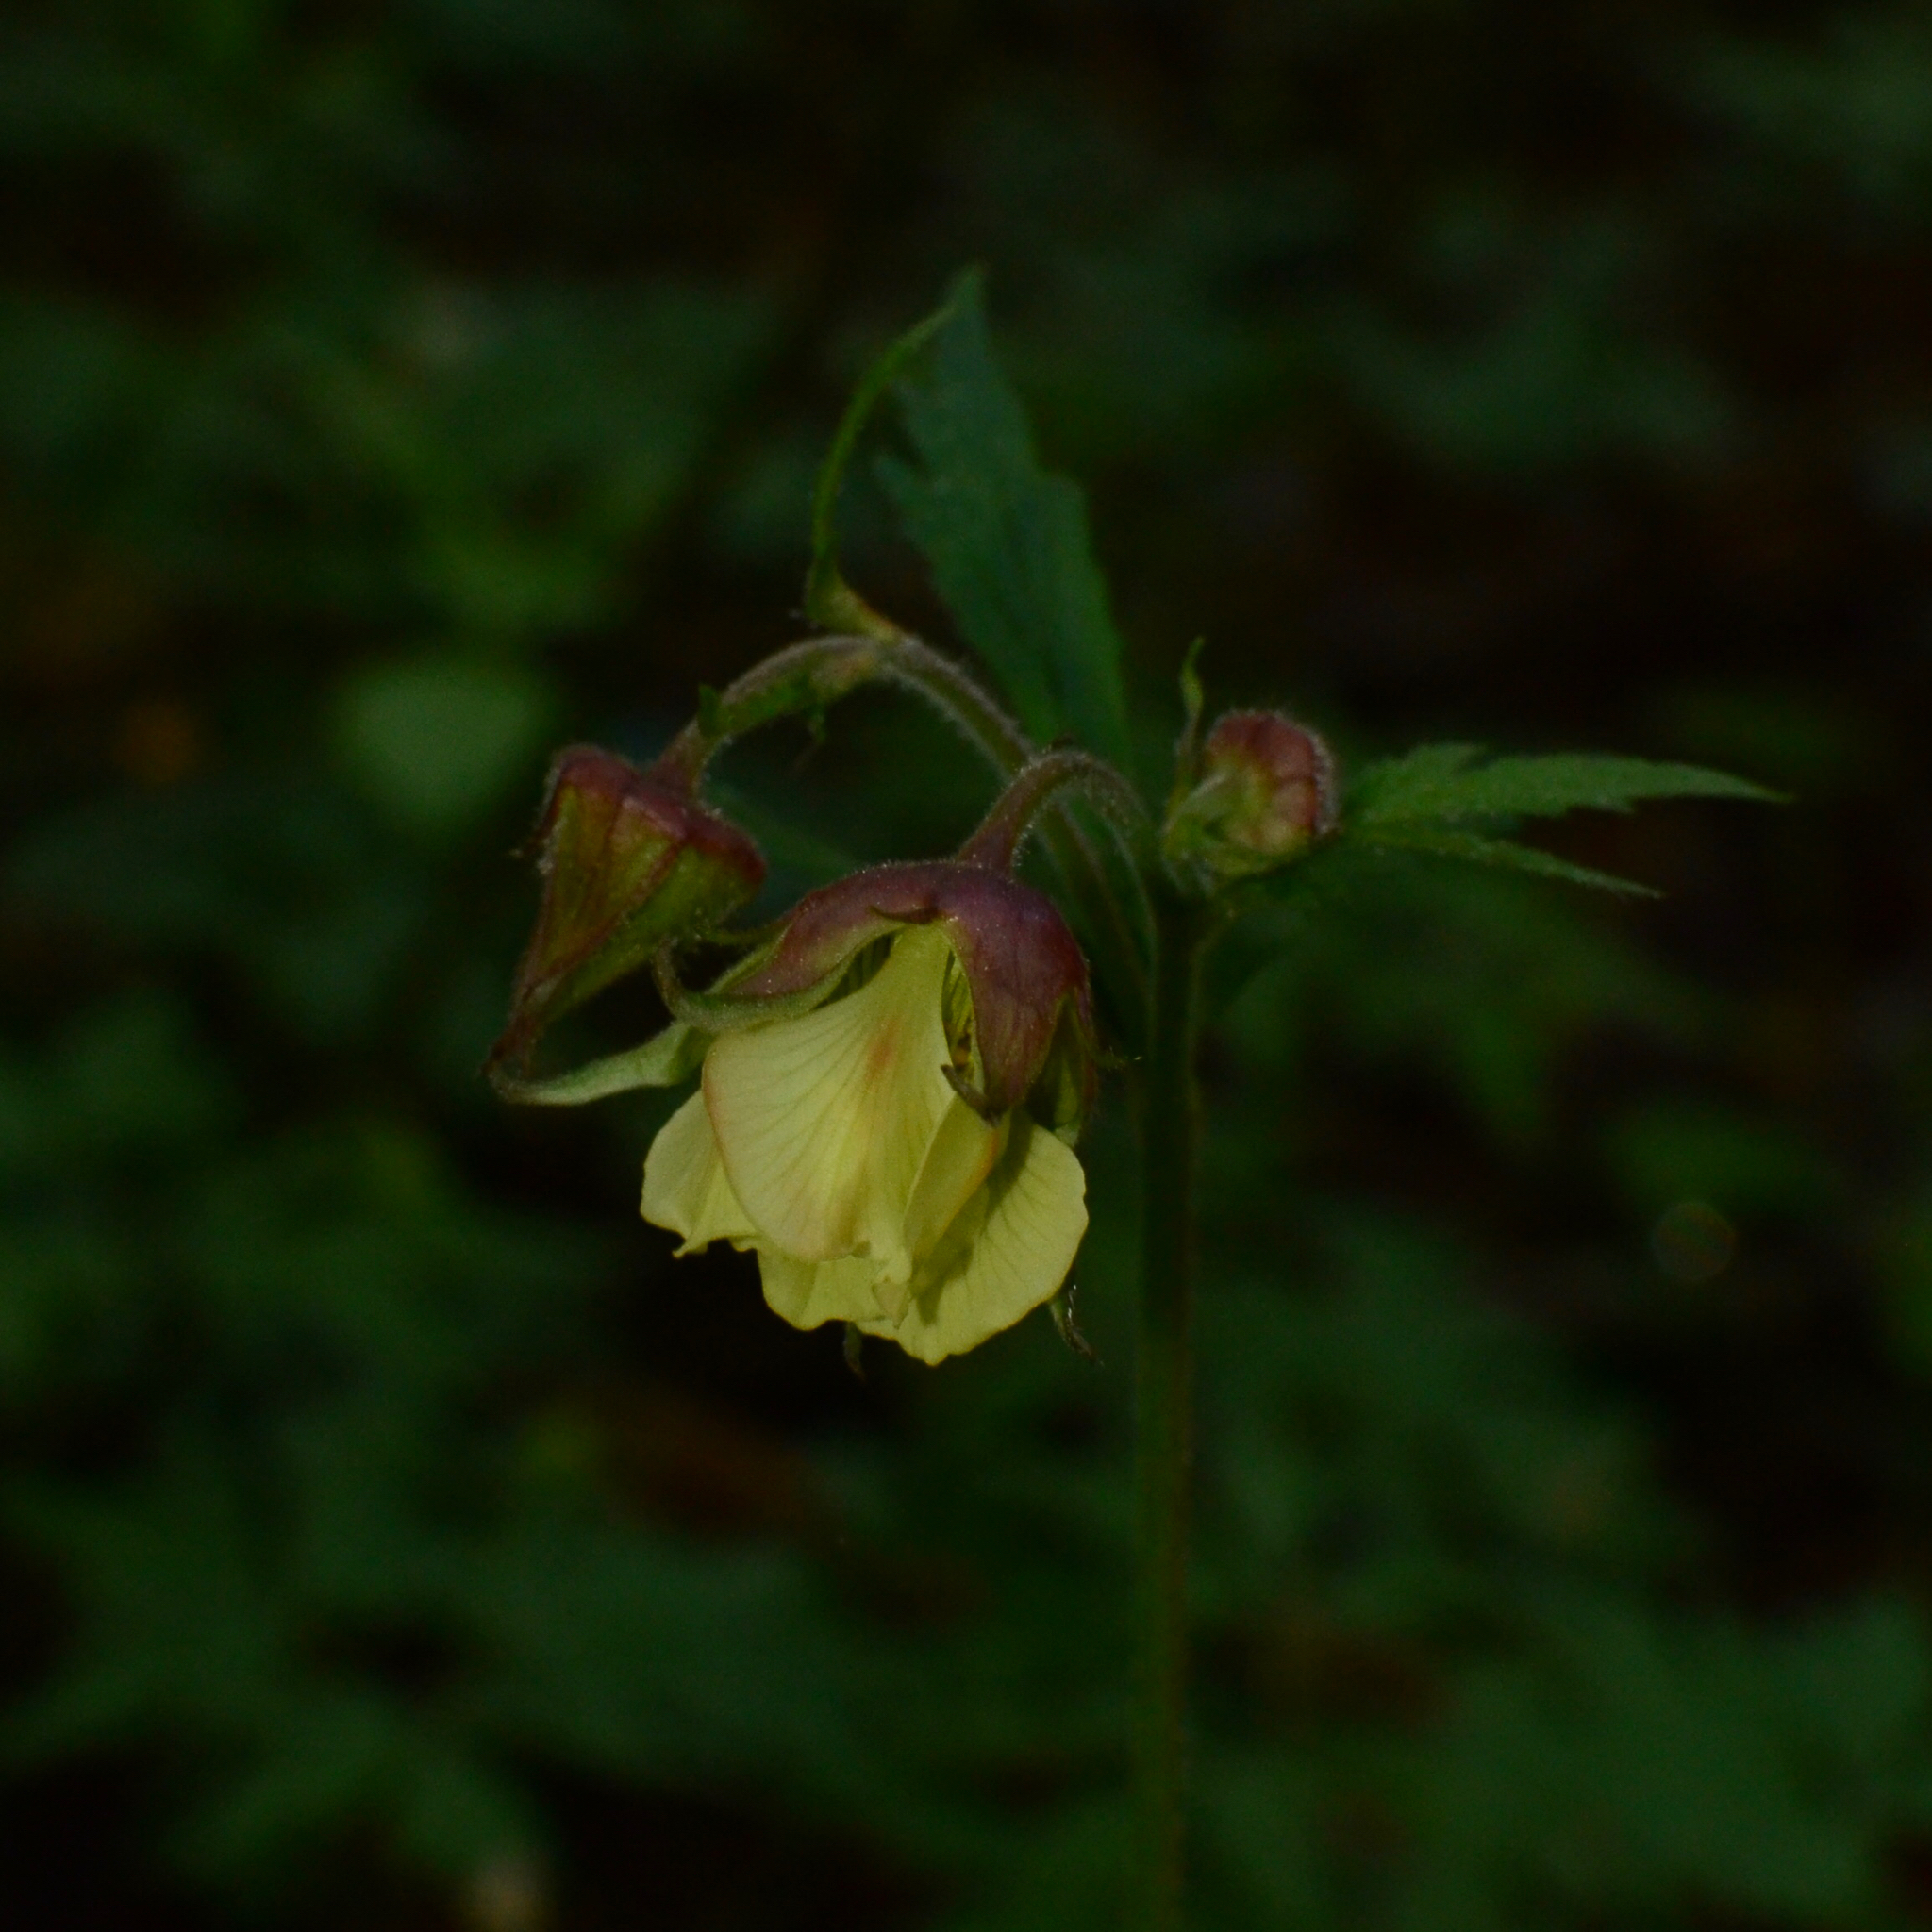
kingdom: Plantae
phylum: Tracheophyta
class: Magnoliopsida
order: Rosales
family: Rosaceae
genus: Geum
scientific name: Geum rivale
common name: Water avens
